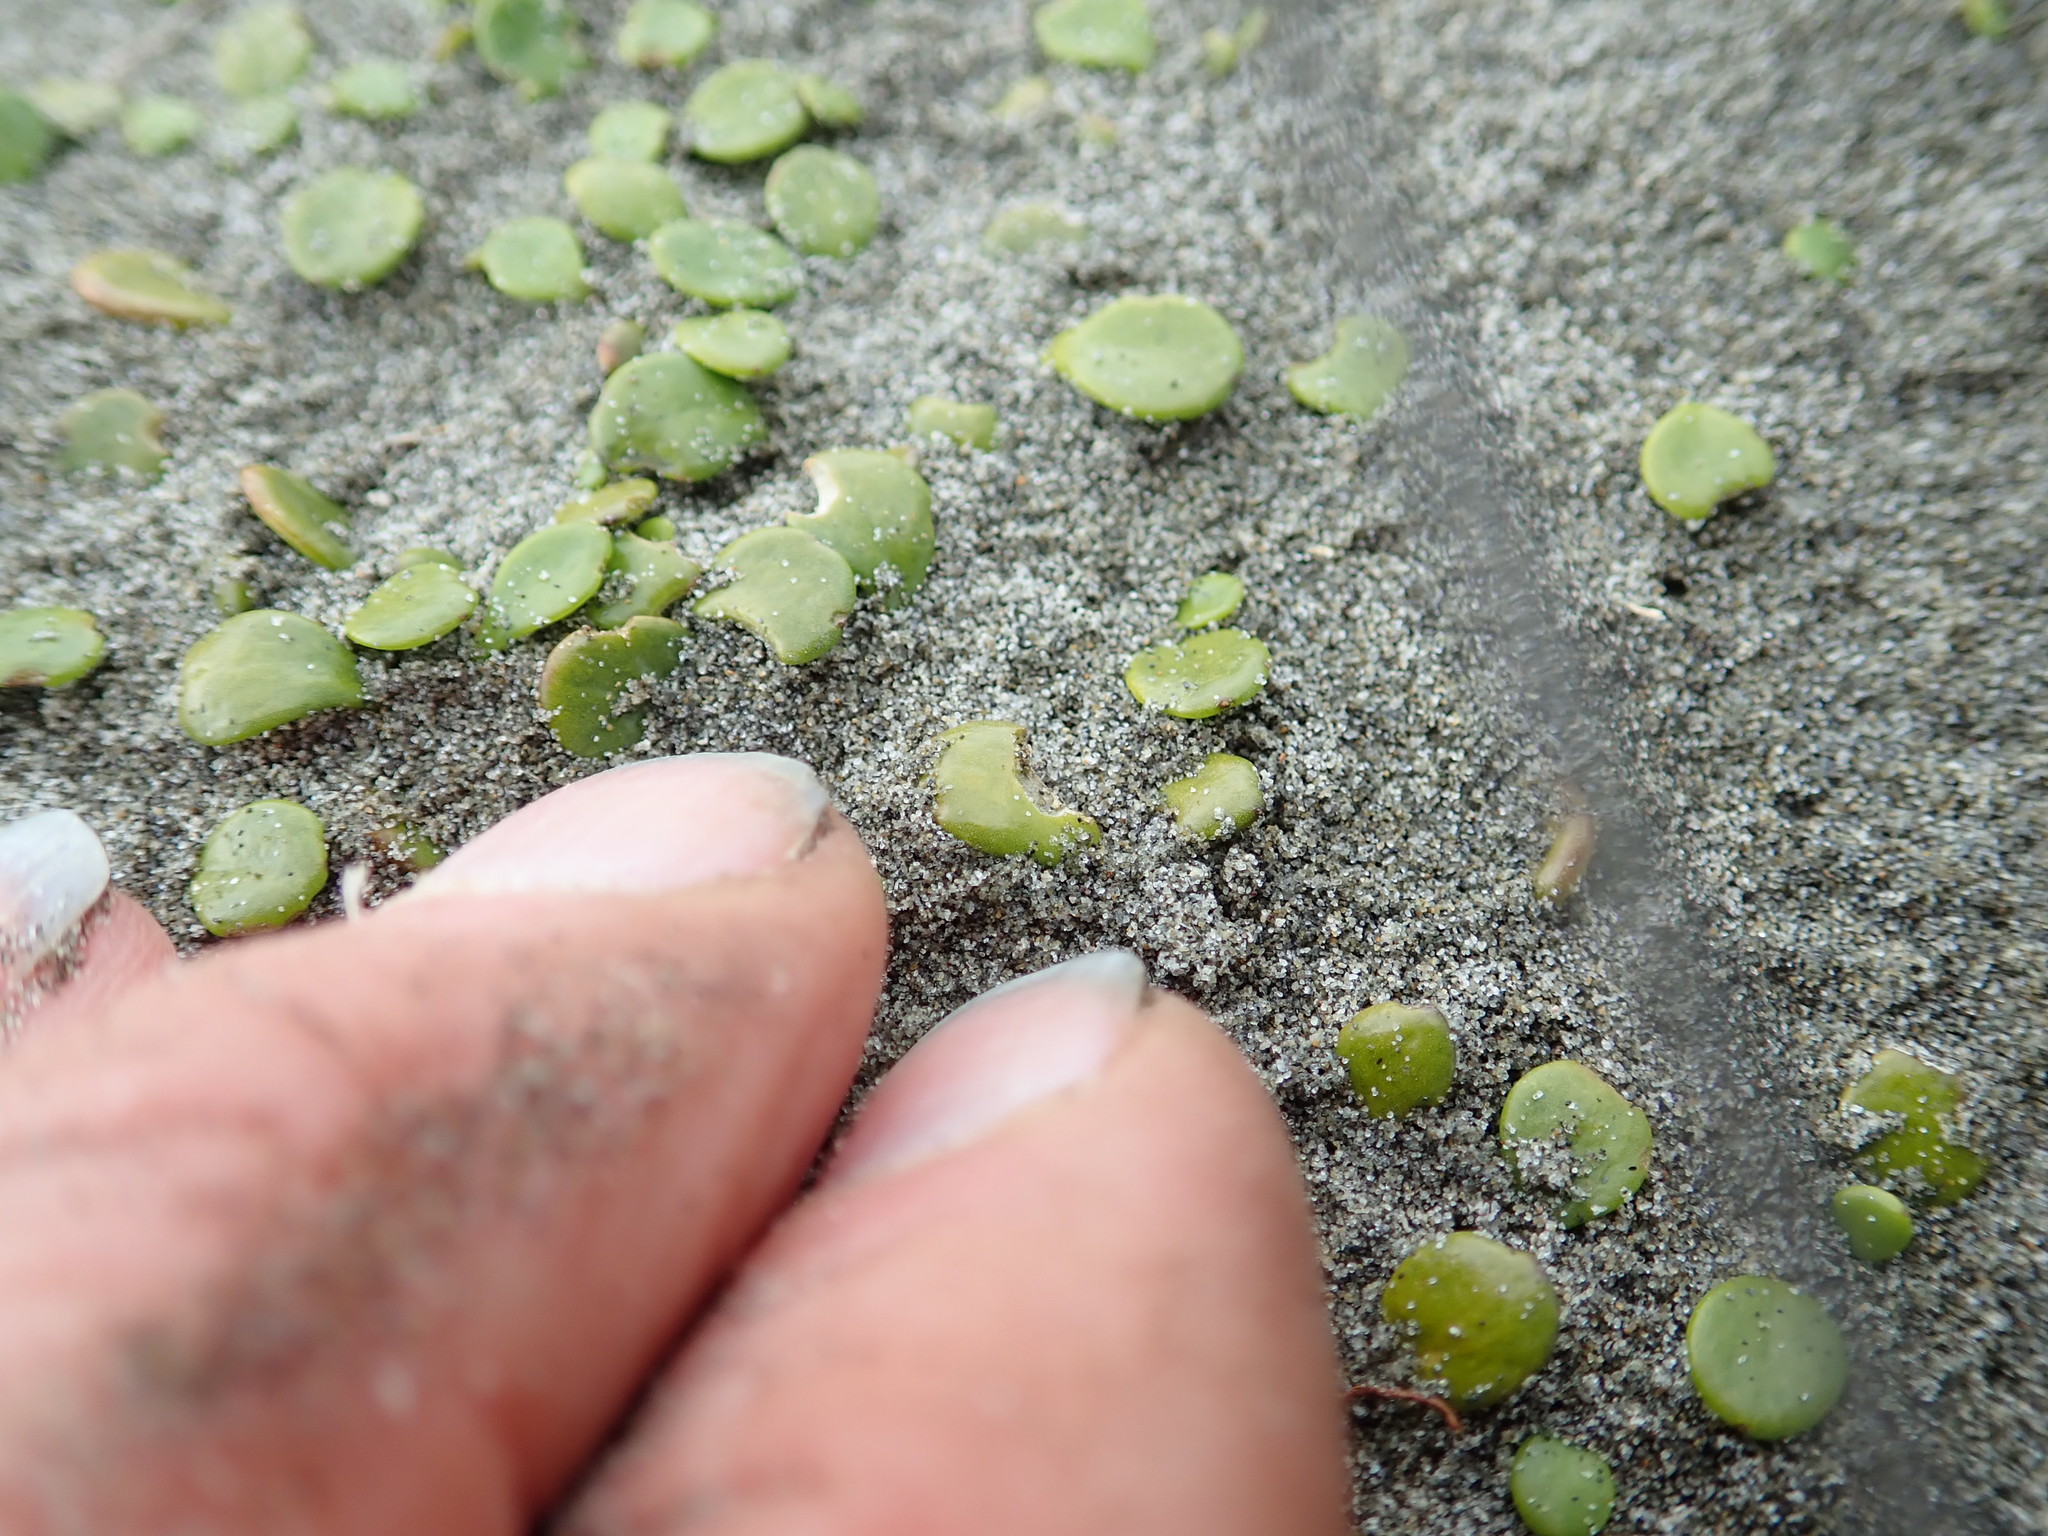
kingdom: Plantae
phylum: Tracheophyta
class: Magnoliopsida
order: Asterales
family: Goodeniaceae
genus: Goodenia
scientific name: Goodenia heenanii
